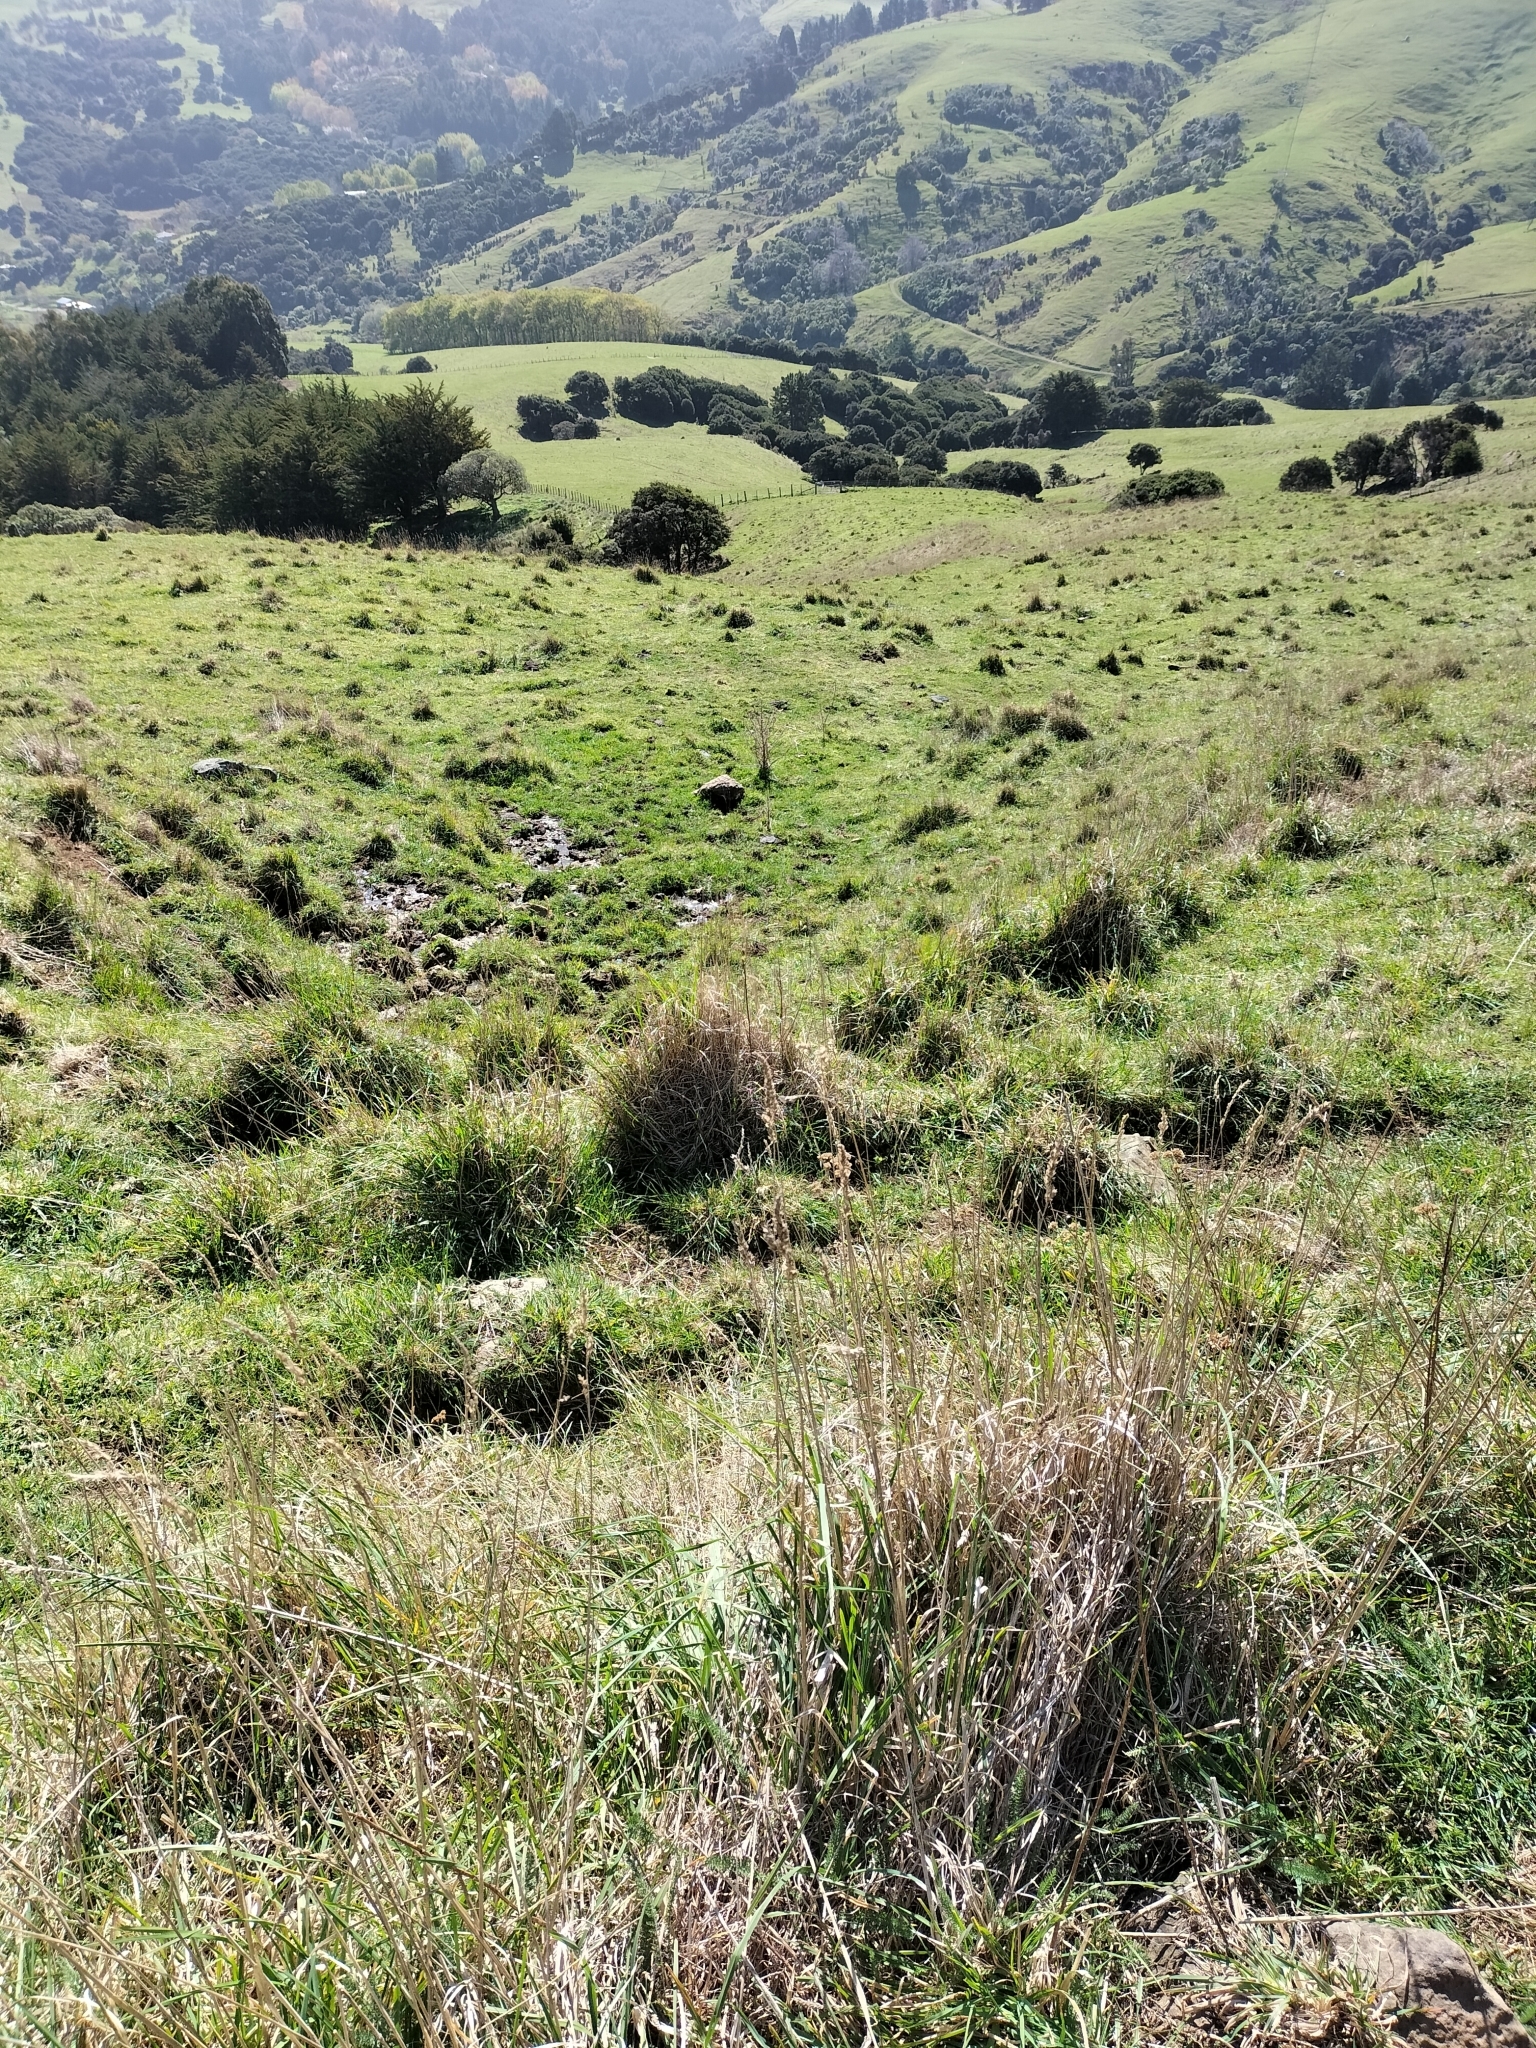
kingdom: Plantae
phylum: Tracheophyta
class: Liliopsida
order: Poales
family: Poaceae
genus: Dactylis
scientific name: Dactylis glomerata
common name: Orchardgrass
